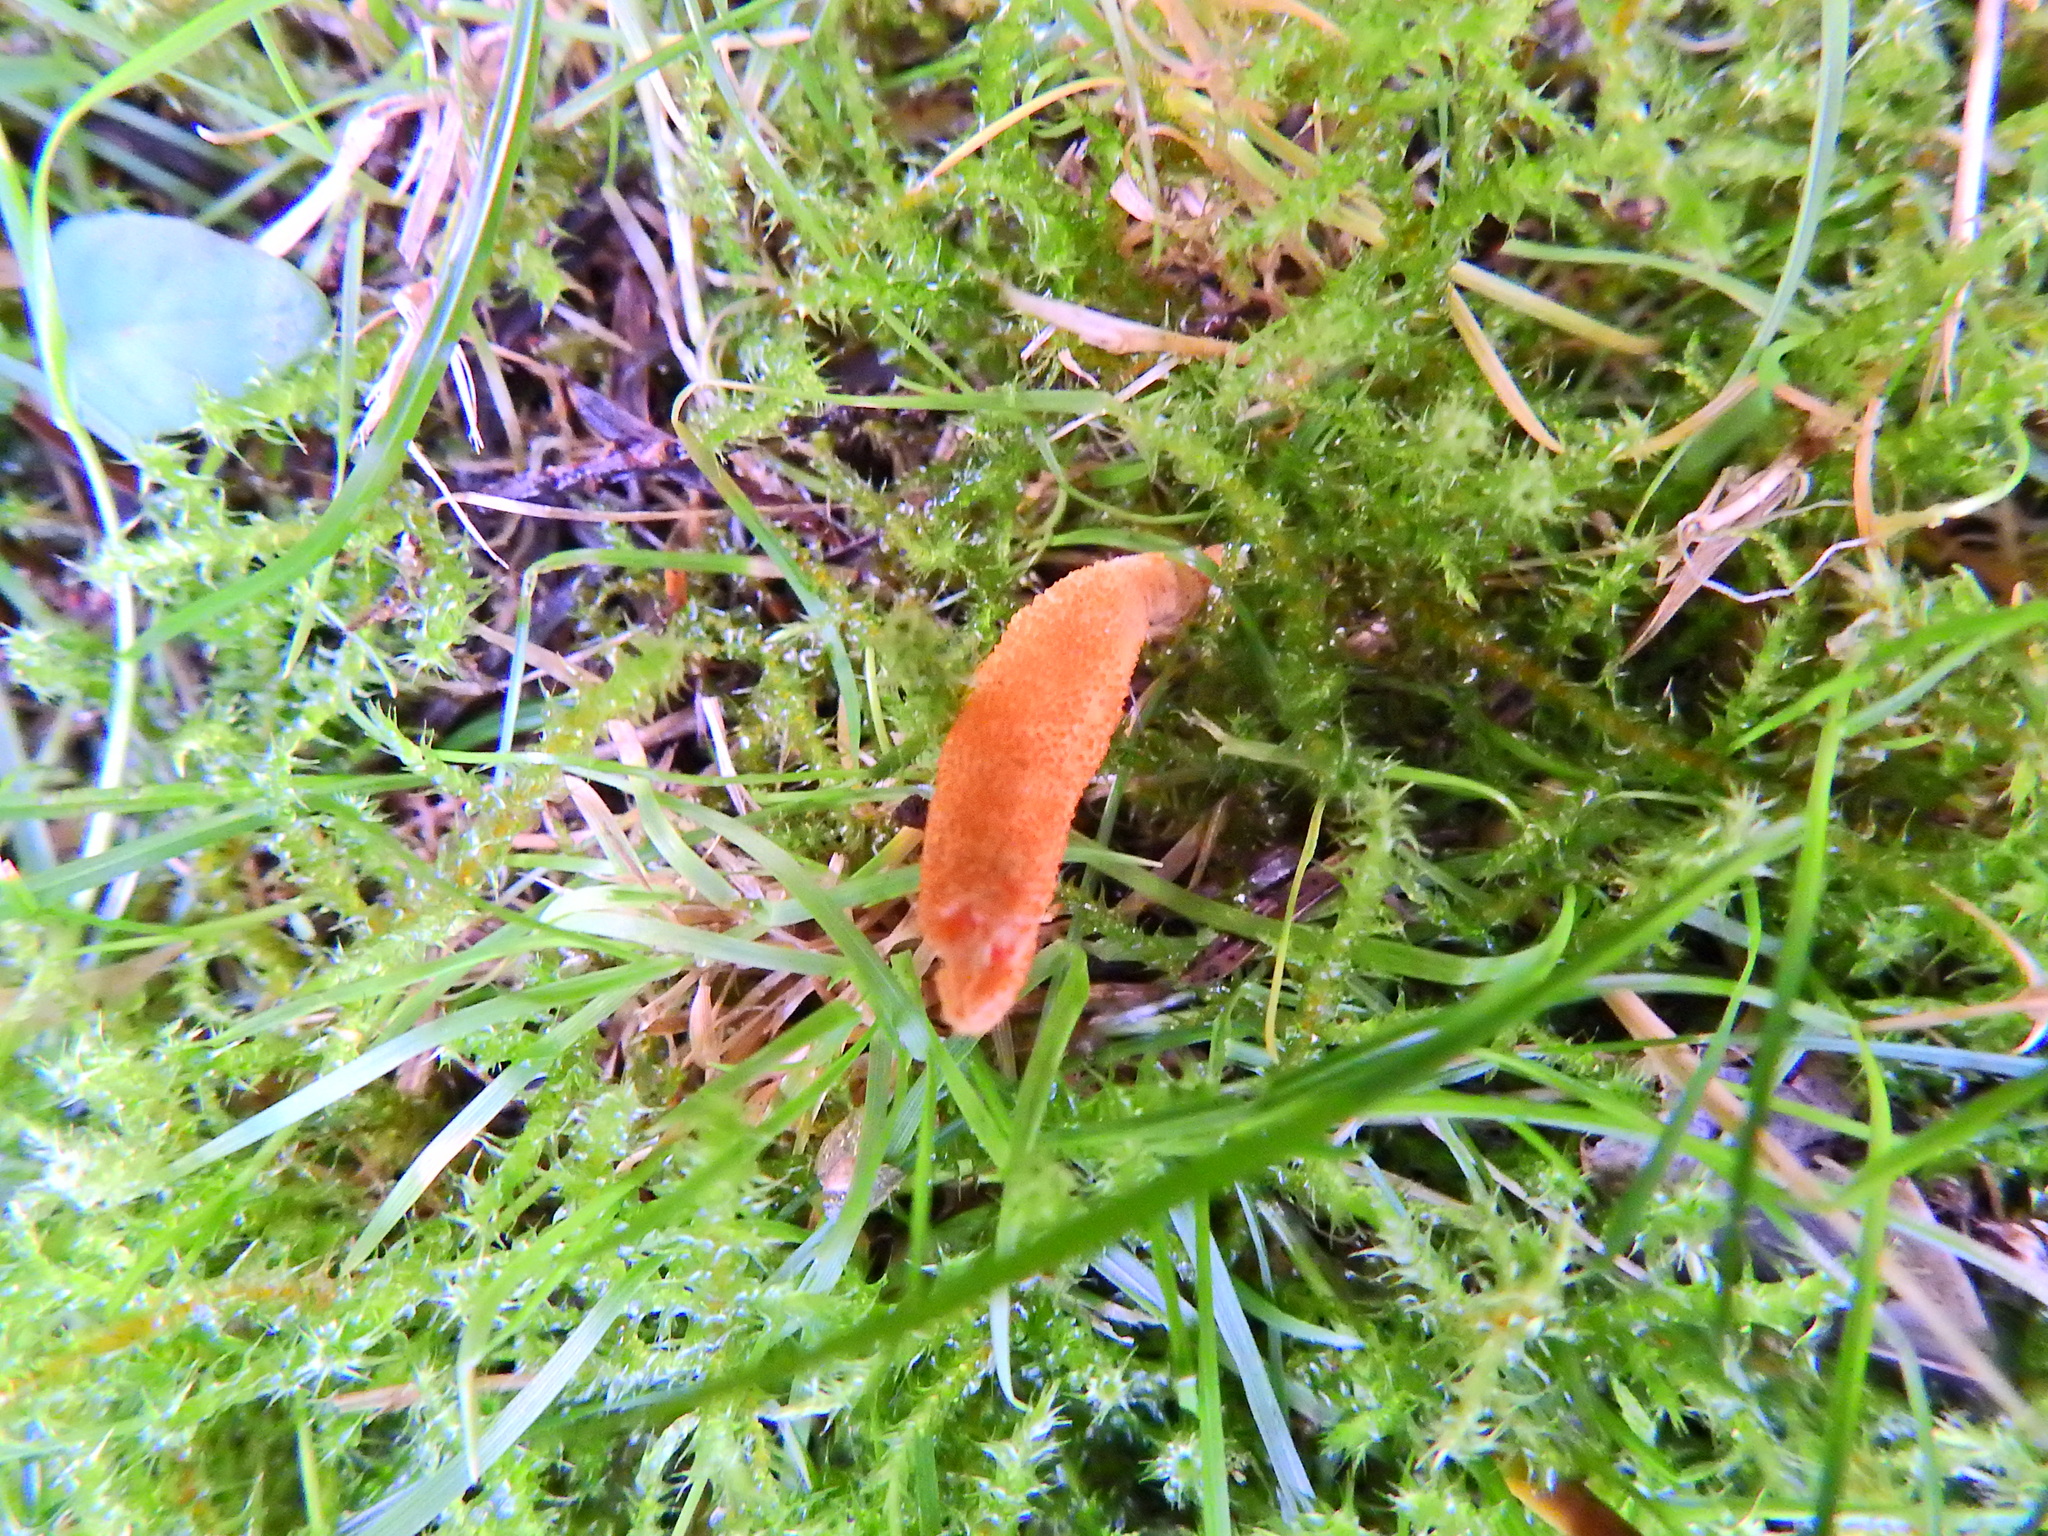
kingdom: Fungi
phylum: Ascomycota
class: Sordariomycetes
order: Hypocreales
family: Cordycipitaceae
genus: Cordyceps
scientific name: Cordyceps militaris
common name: Scarlet caterpillar fungus
